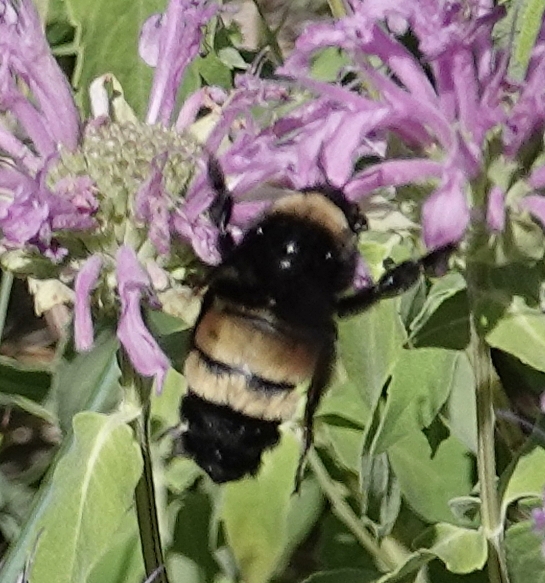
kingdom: Animalia
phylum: Arthropoda
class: Insecta
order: Hymenoptera
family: Apidae
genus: Bombus
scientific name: Bombus pensylvanicus
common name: Bumble bee
